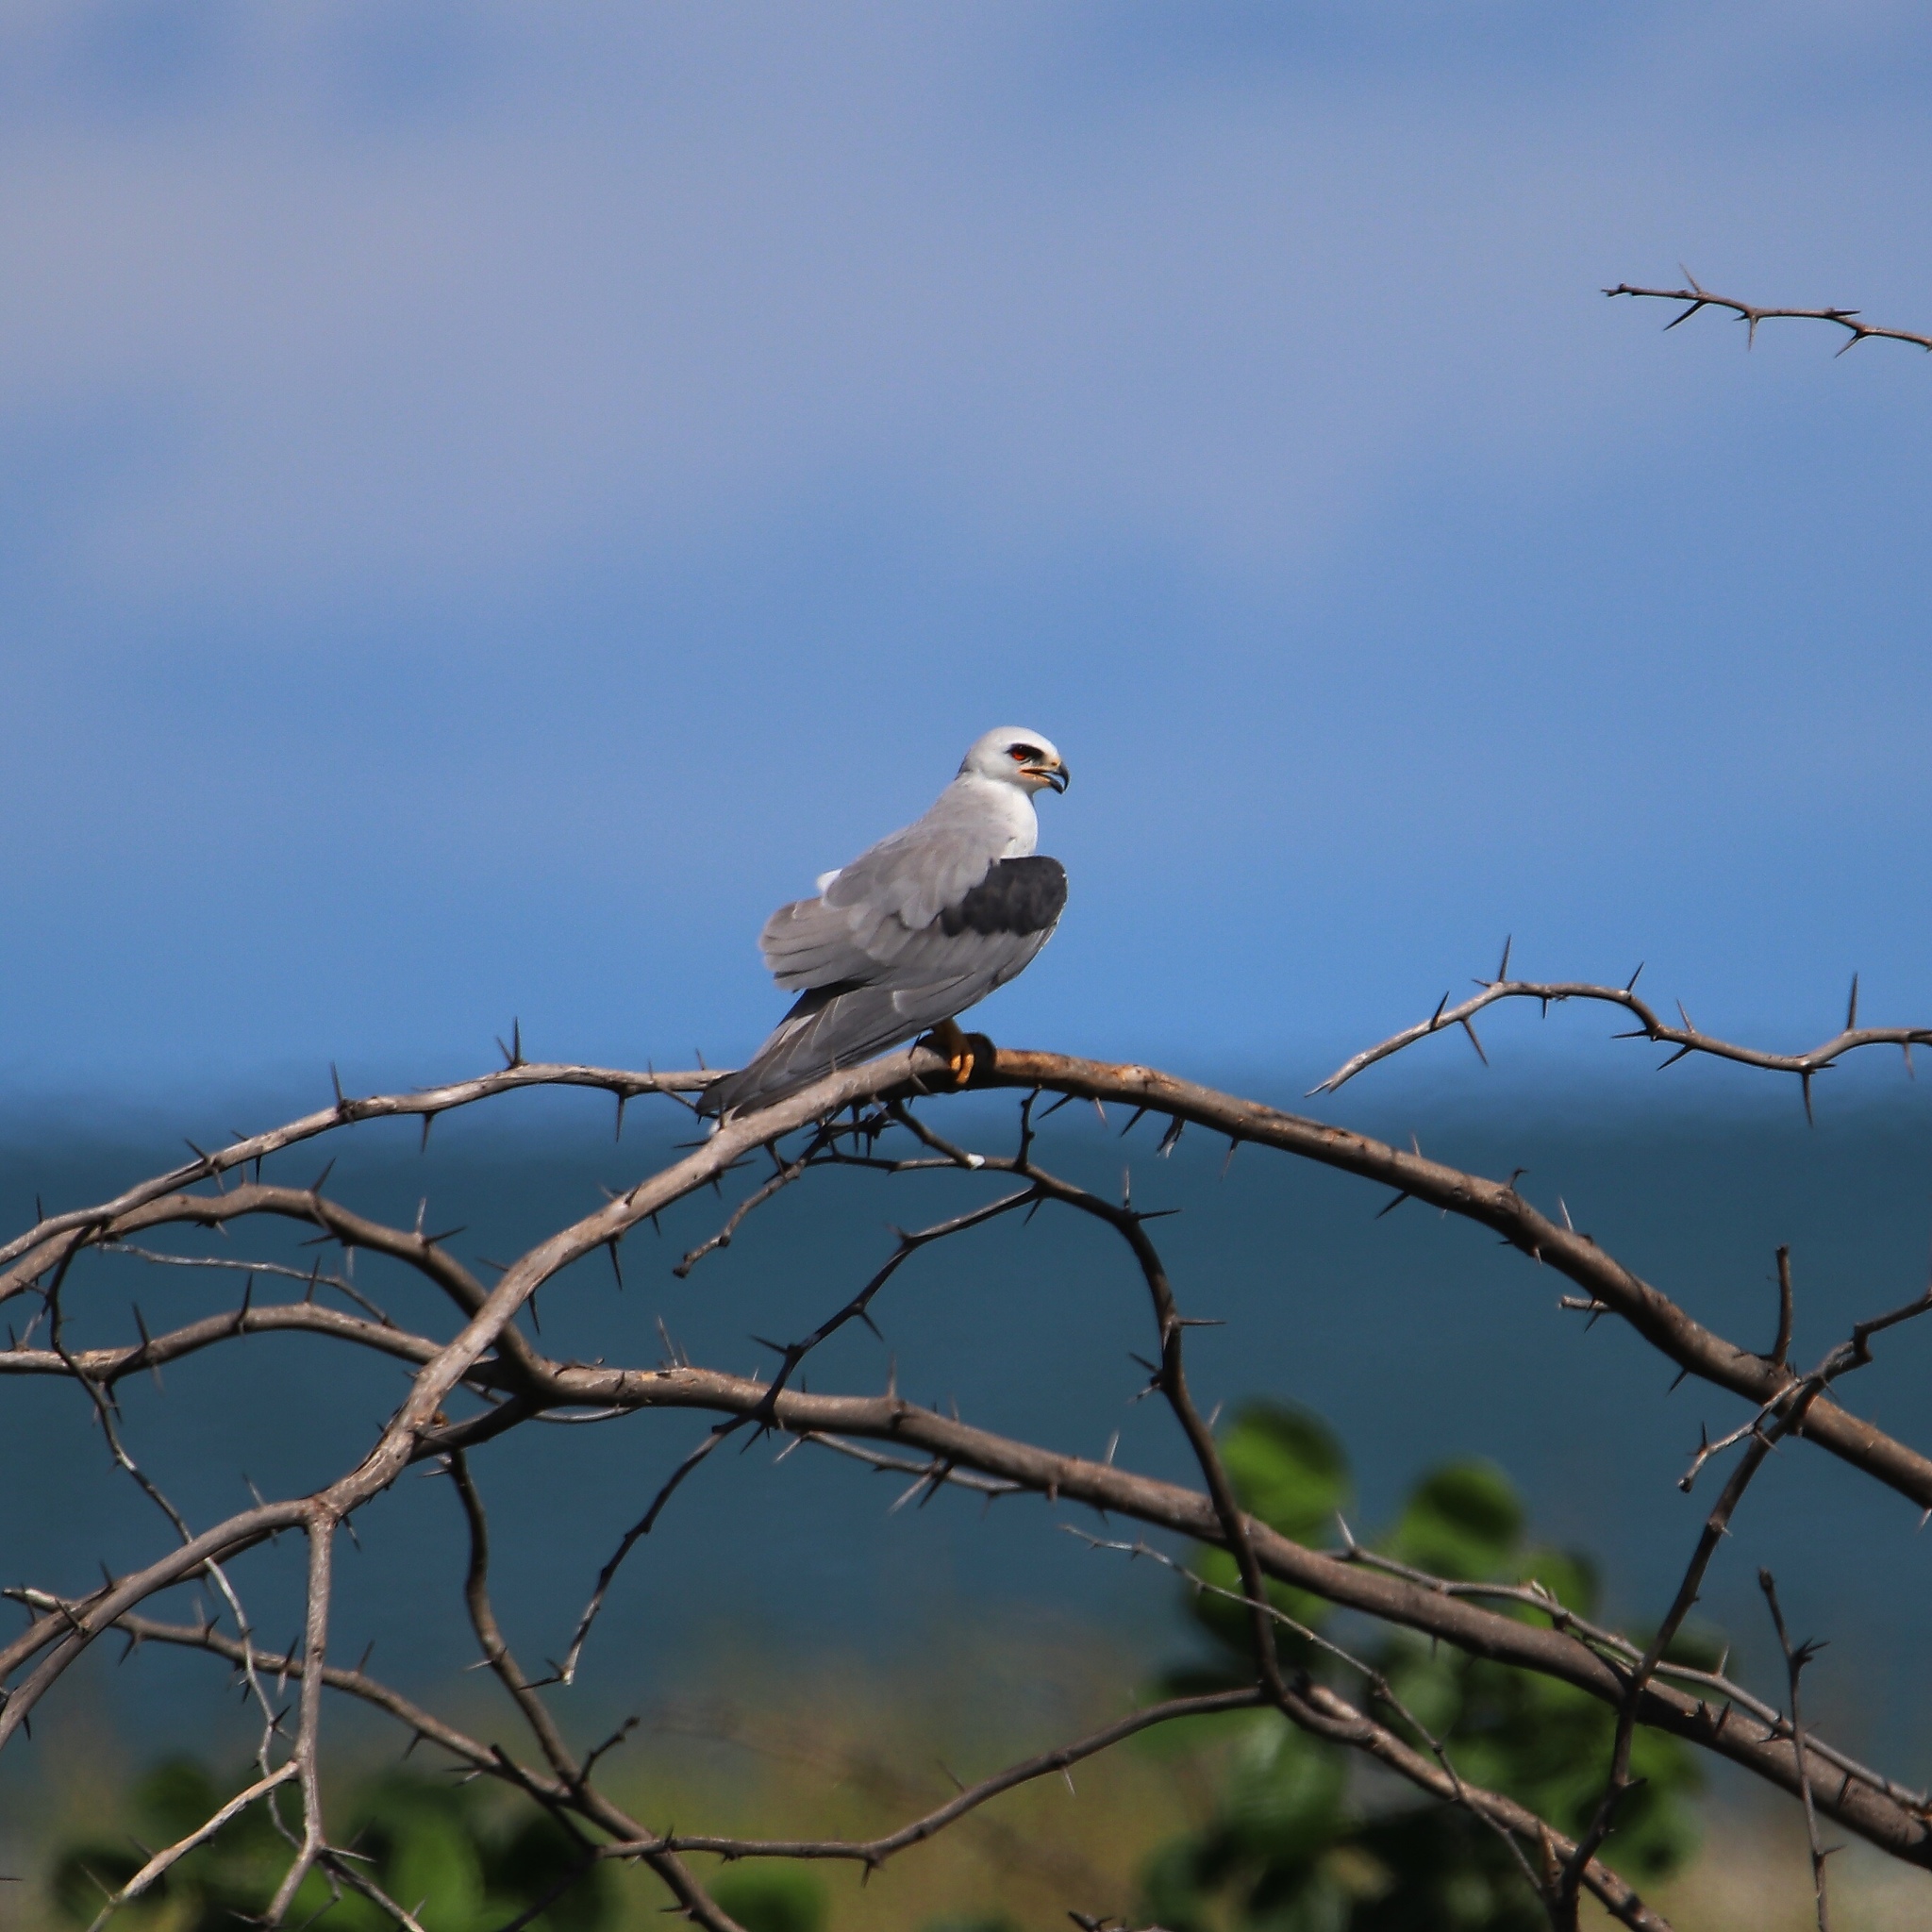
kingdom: Animalia
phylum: Chordata
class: Aves
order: Accipitriformes
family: Accipitridae
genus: Elanus
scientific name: Elanus leucurus
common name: White-tailed kite
